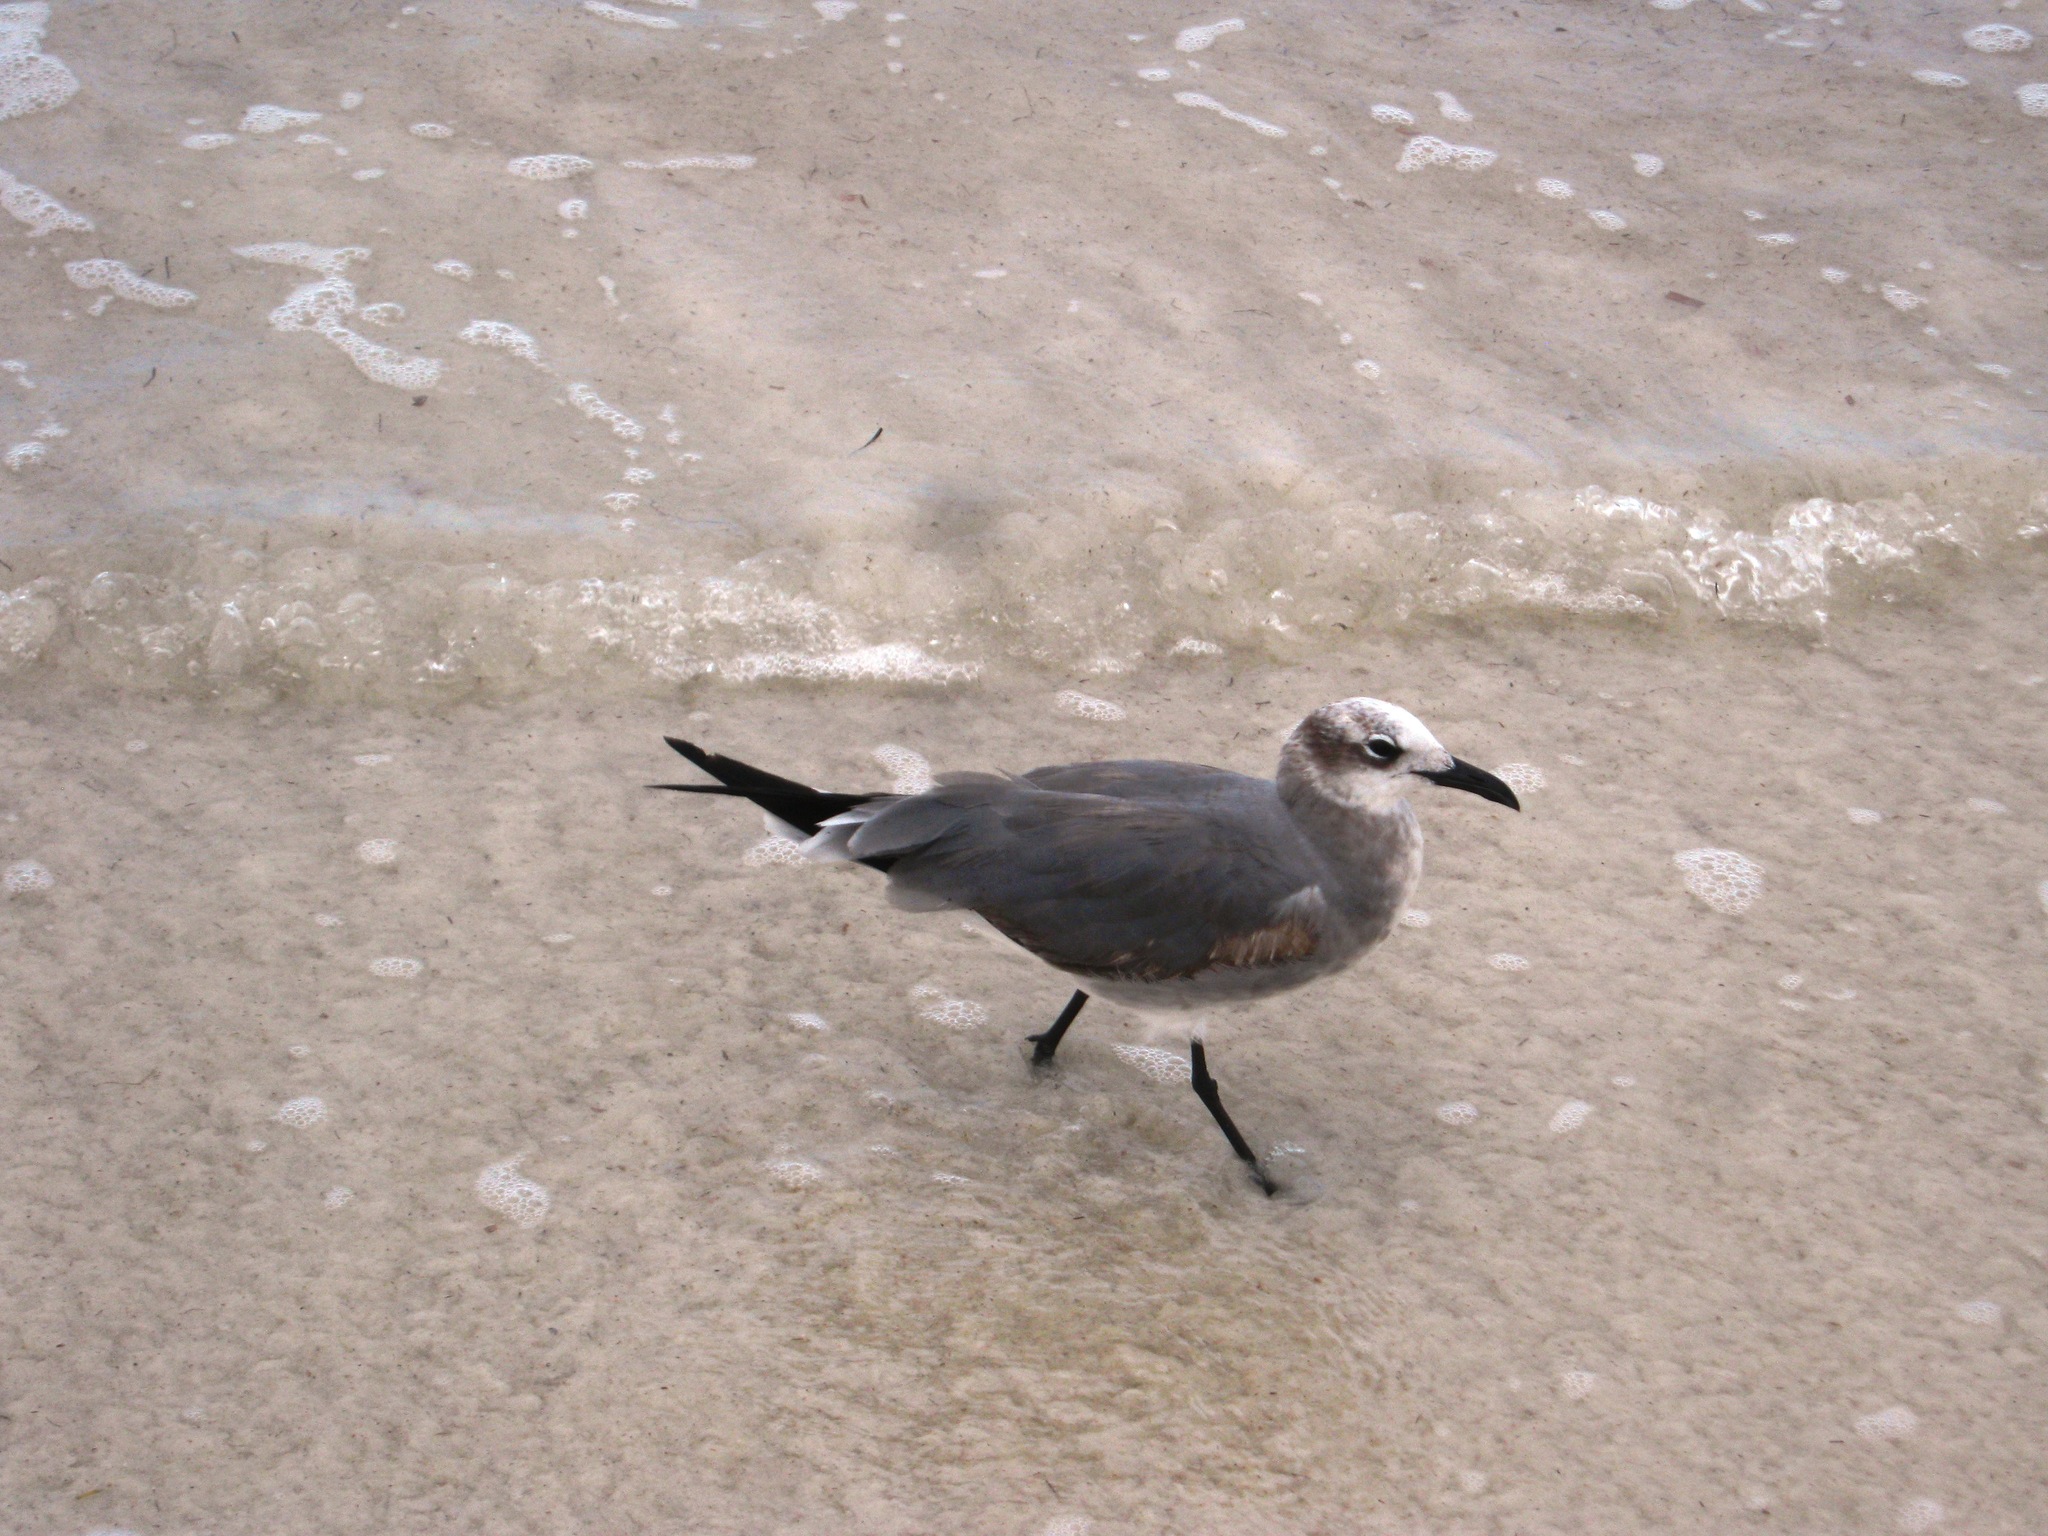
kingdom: Animalia
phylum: Chordata
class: Aves
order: Charadriiformes
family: Laridae
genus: Leucophaeus
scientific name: Leucophaeus atricilla
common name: Laughing gull
